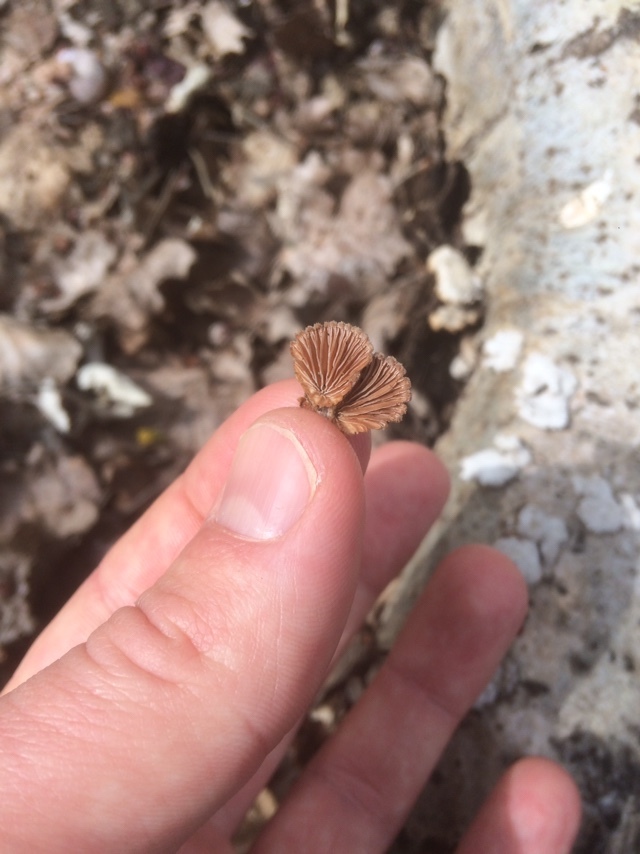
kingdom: Fungi
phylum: Basidiomycota
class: Agaricomycetes
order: Agaricales
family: Schizophyllaceae
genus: Schizophyllum
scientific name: Schizophyllum commune
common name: Common porecrust
